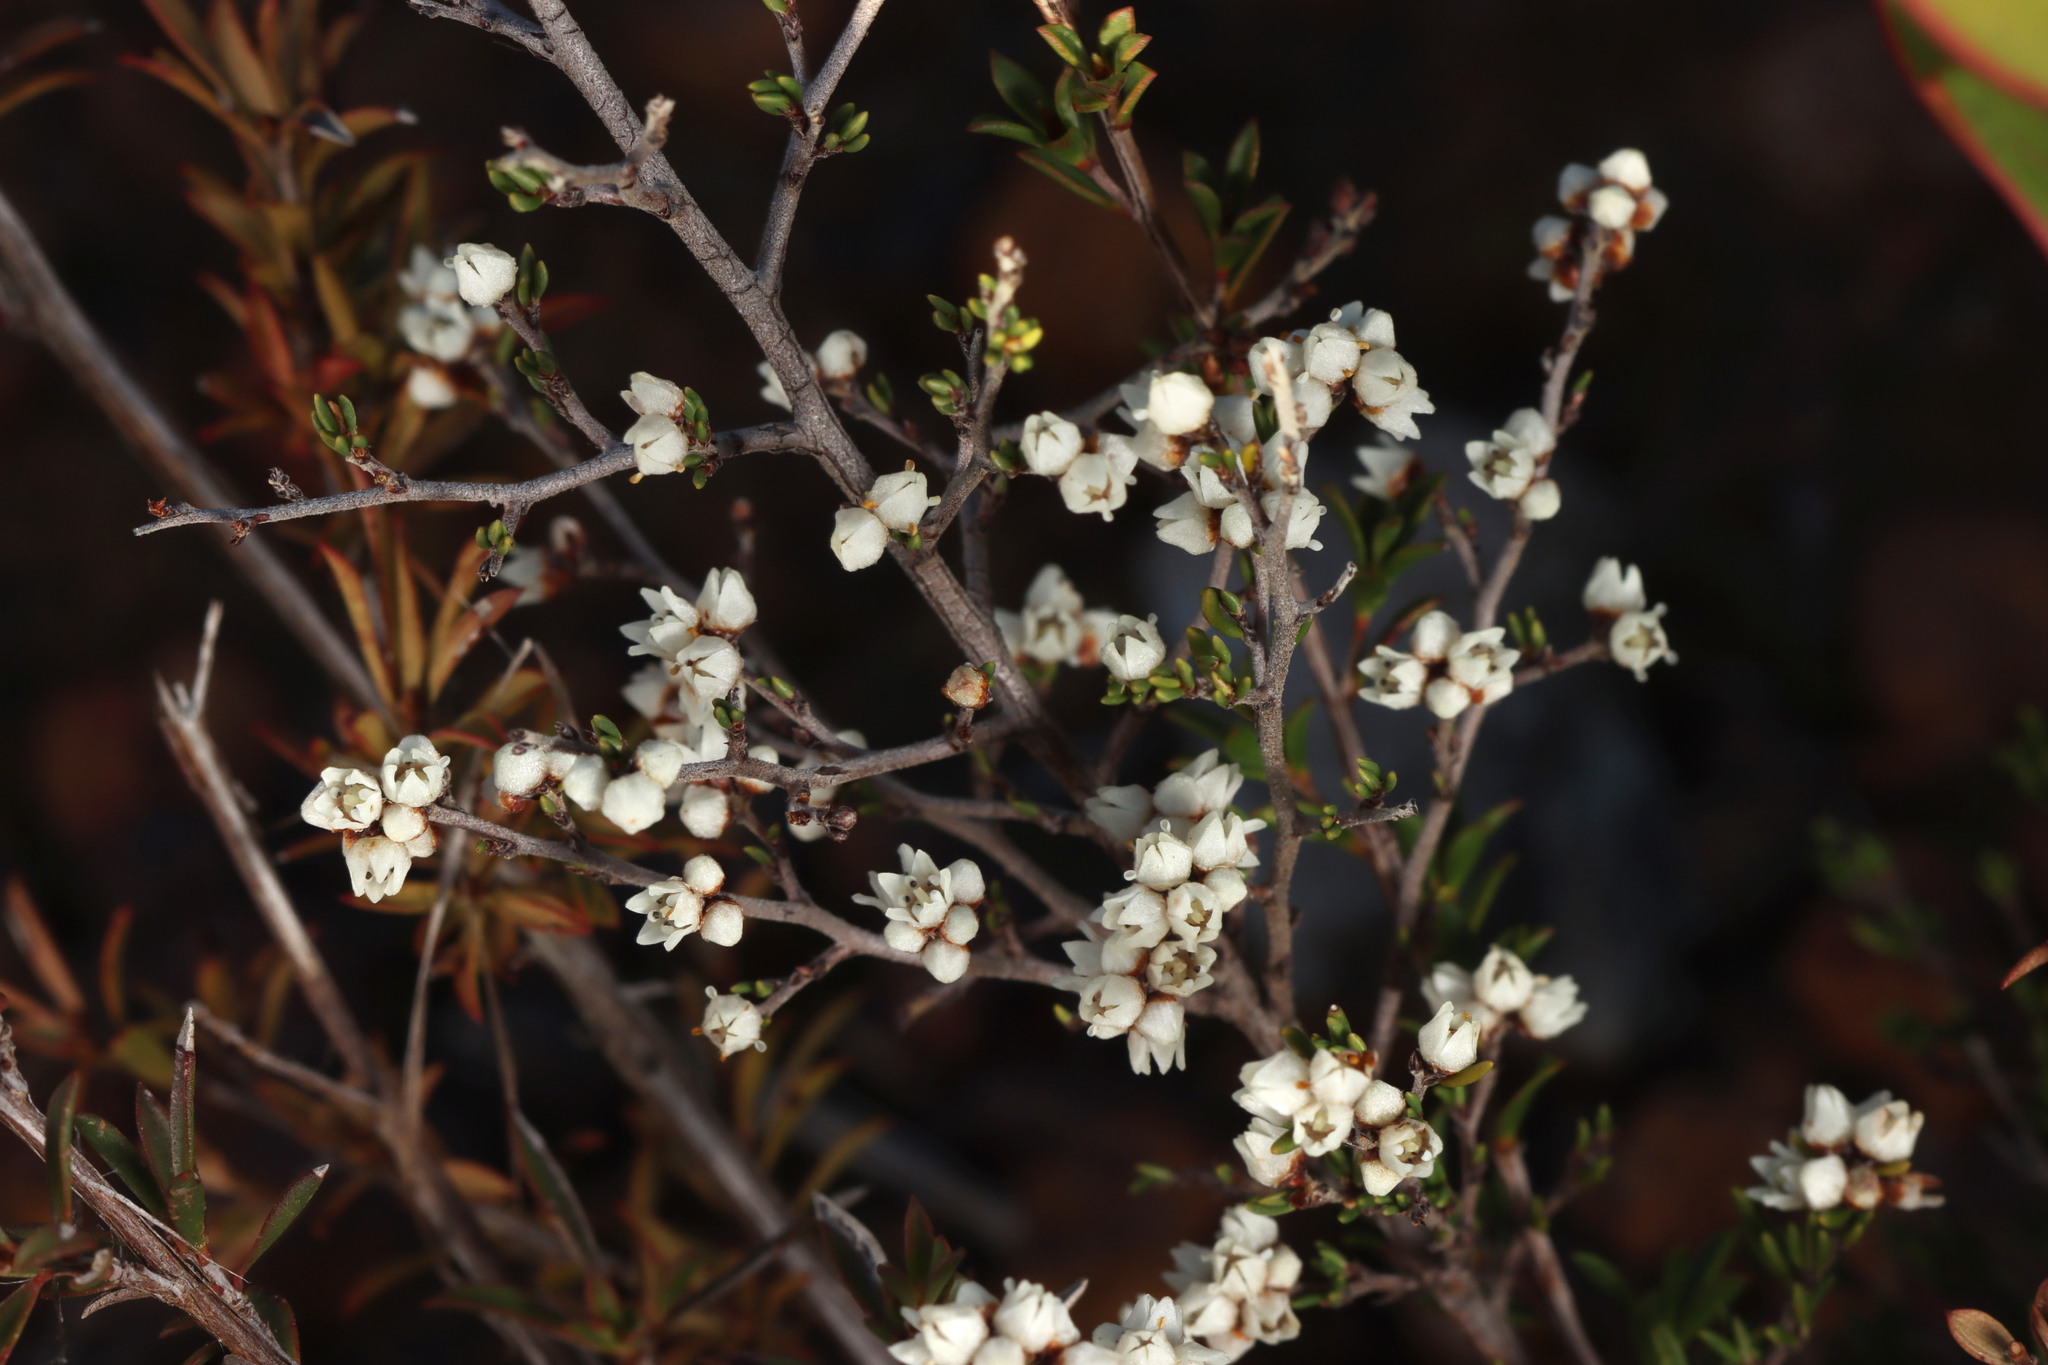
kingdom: Plantae
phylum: Tracheophyta
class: Magnoliopsida
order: Rosales
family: Rhamnaceae
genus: Cryptandra
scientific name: Cryptandra tomentosa
